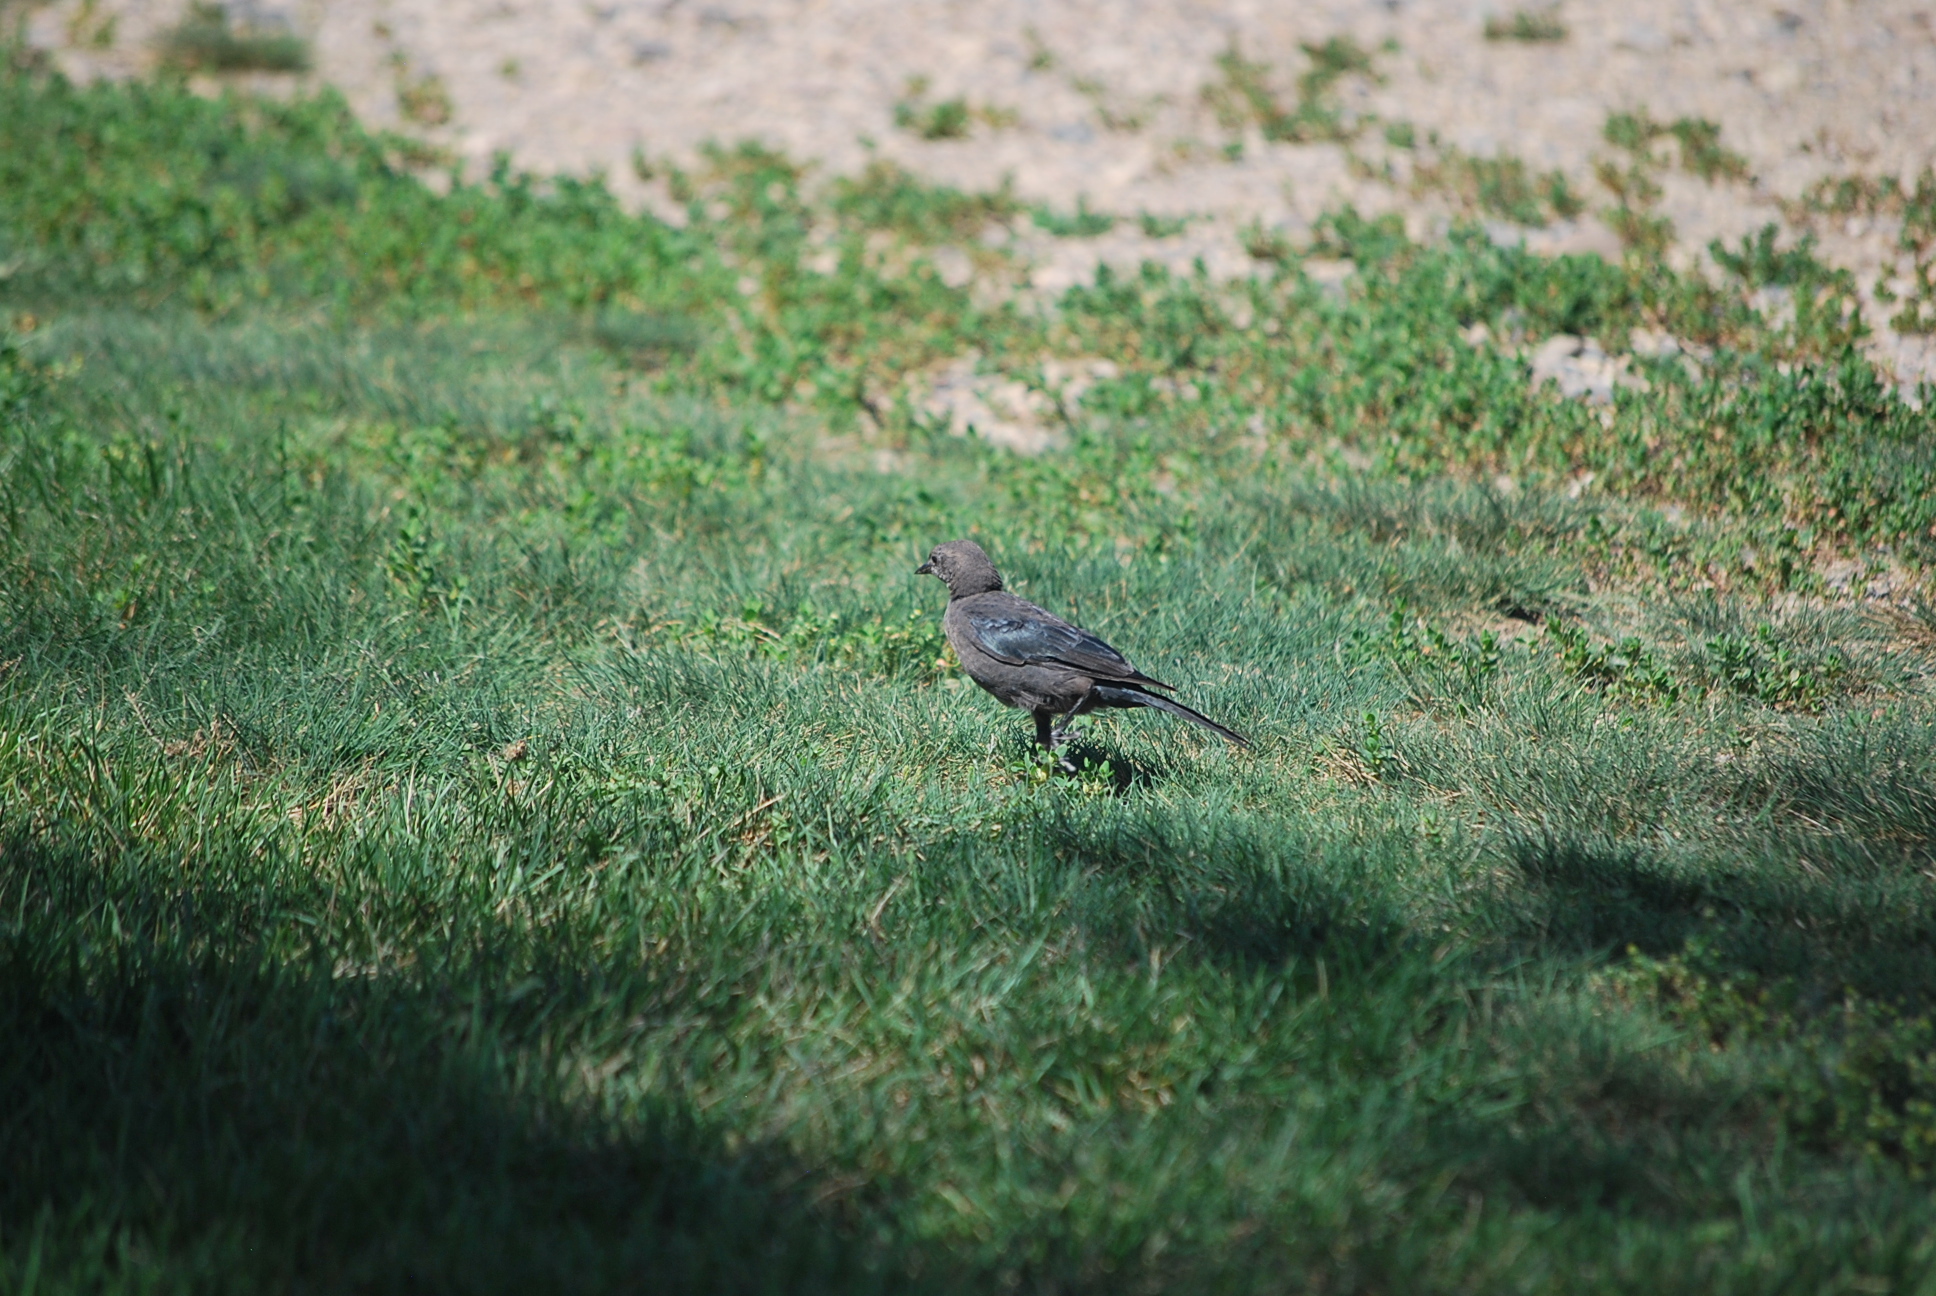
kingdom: Animalia
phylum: Chordata
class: Aves
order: Passeriformes
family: Icteridae
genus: Euphagus
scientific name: Euphagus cyanocephalus
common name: Brewer's blackbird
